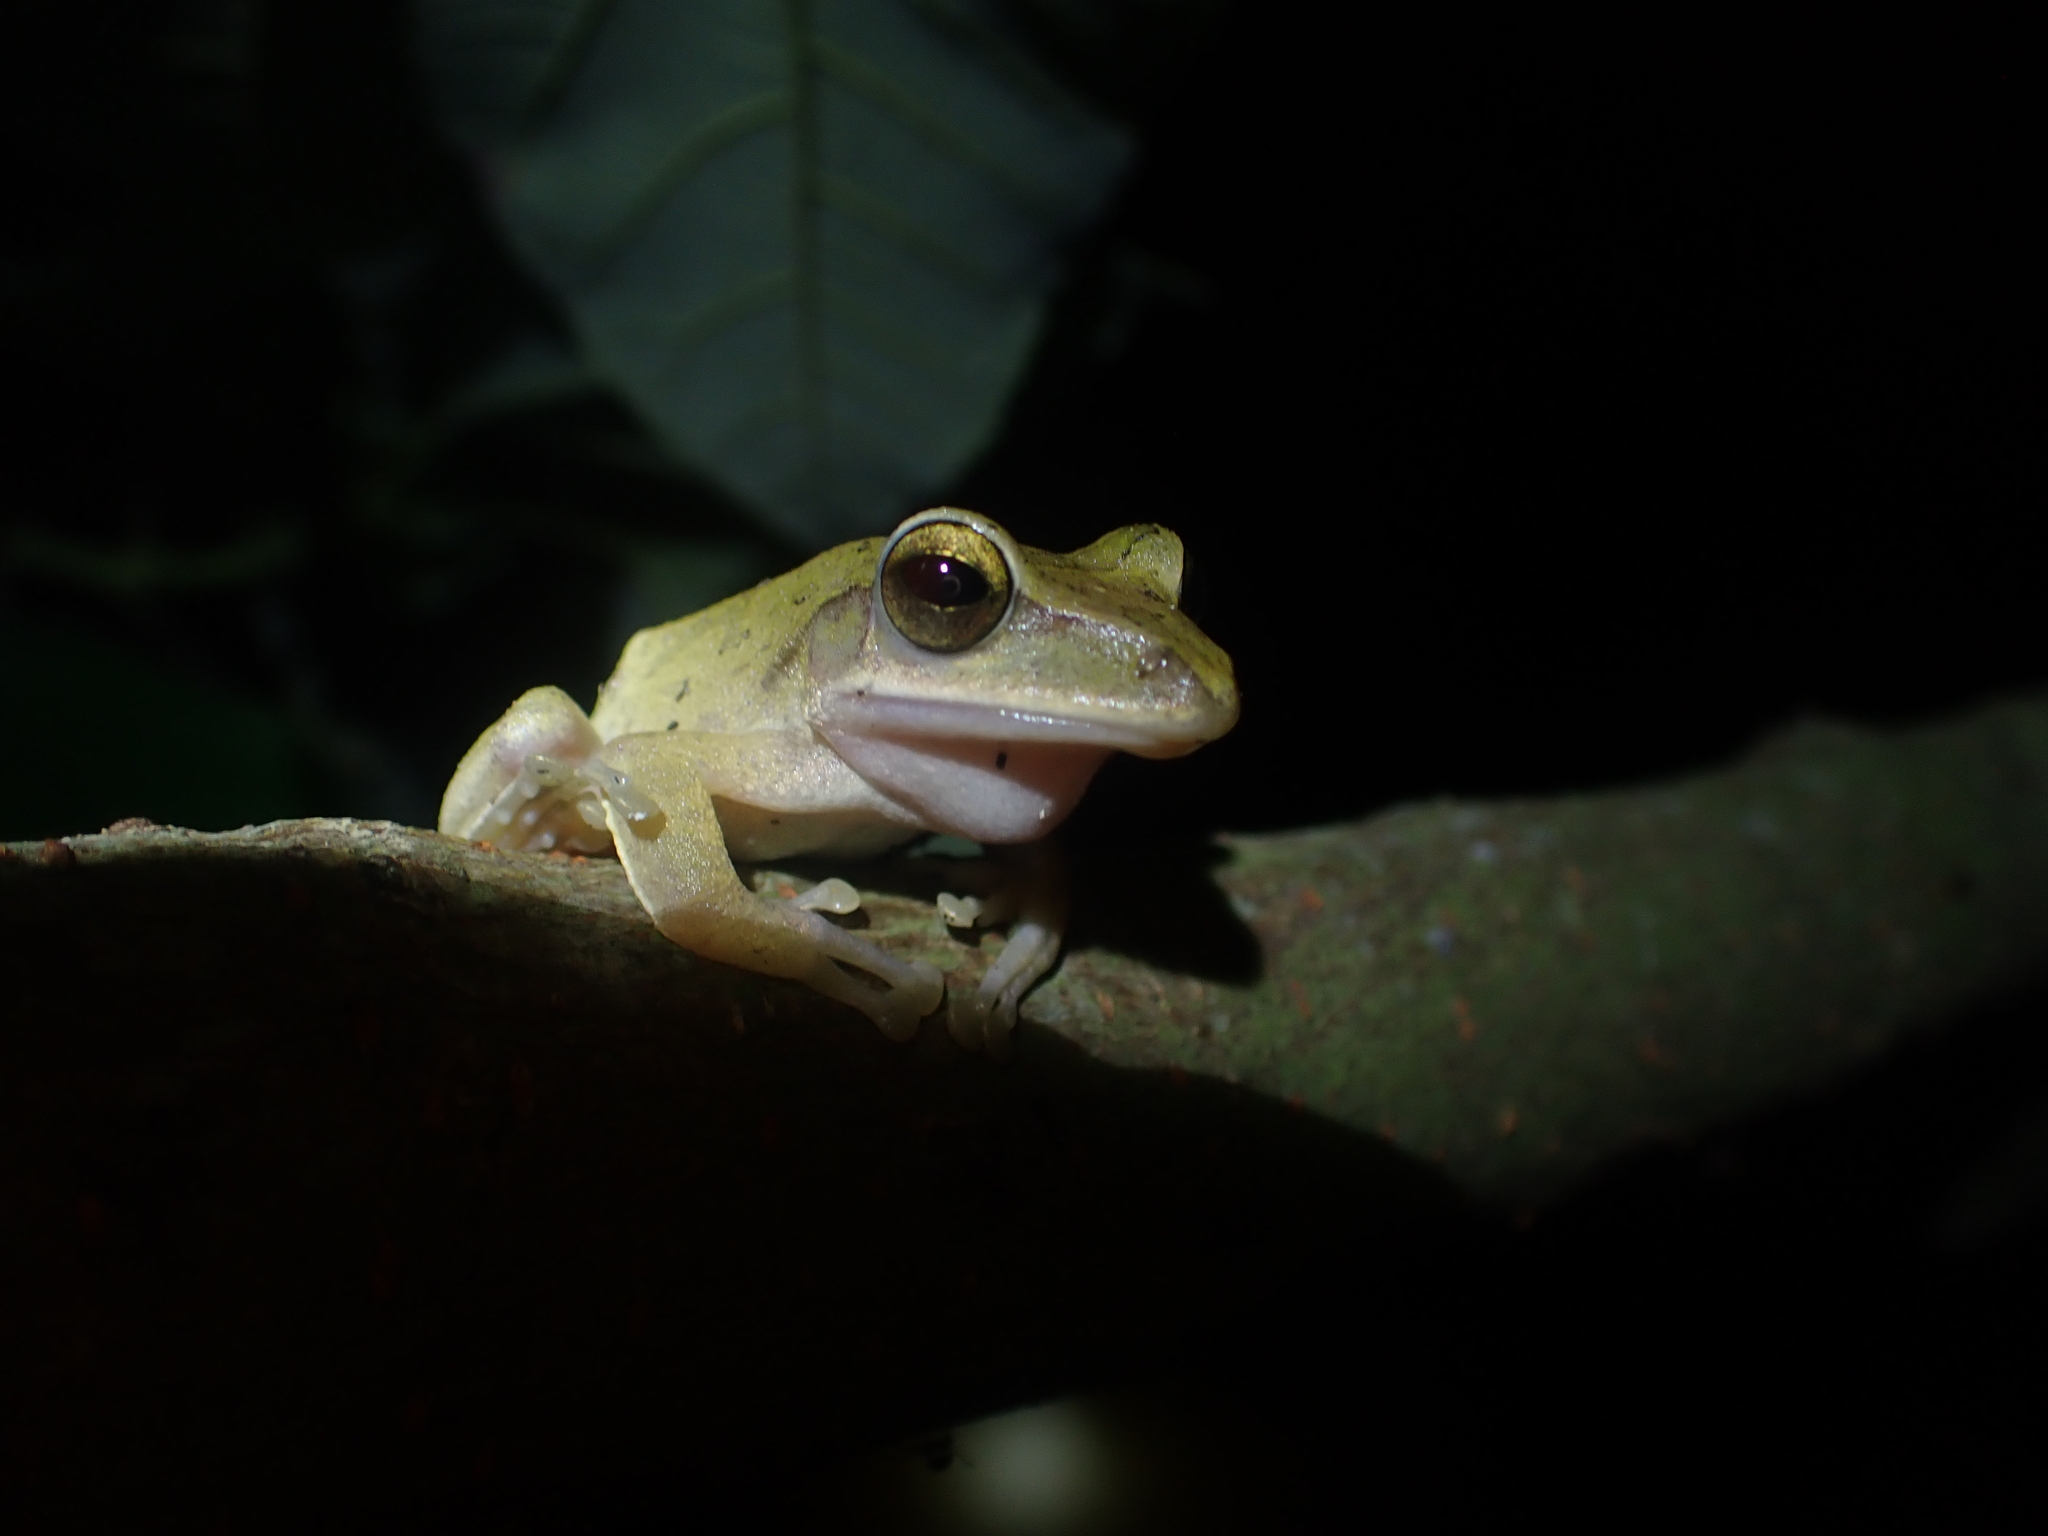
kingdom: Animalia
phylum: Chordata
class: Amphibia
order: Anura
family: Rhacophoridae
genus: Polypedates
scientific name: Polypedates megacephalus
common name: Hong kong whipping frog
